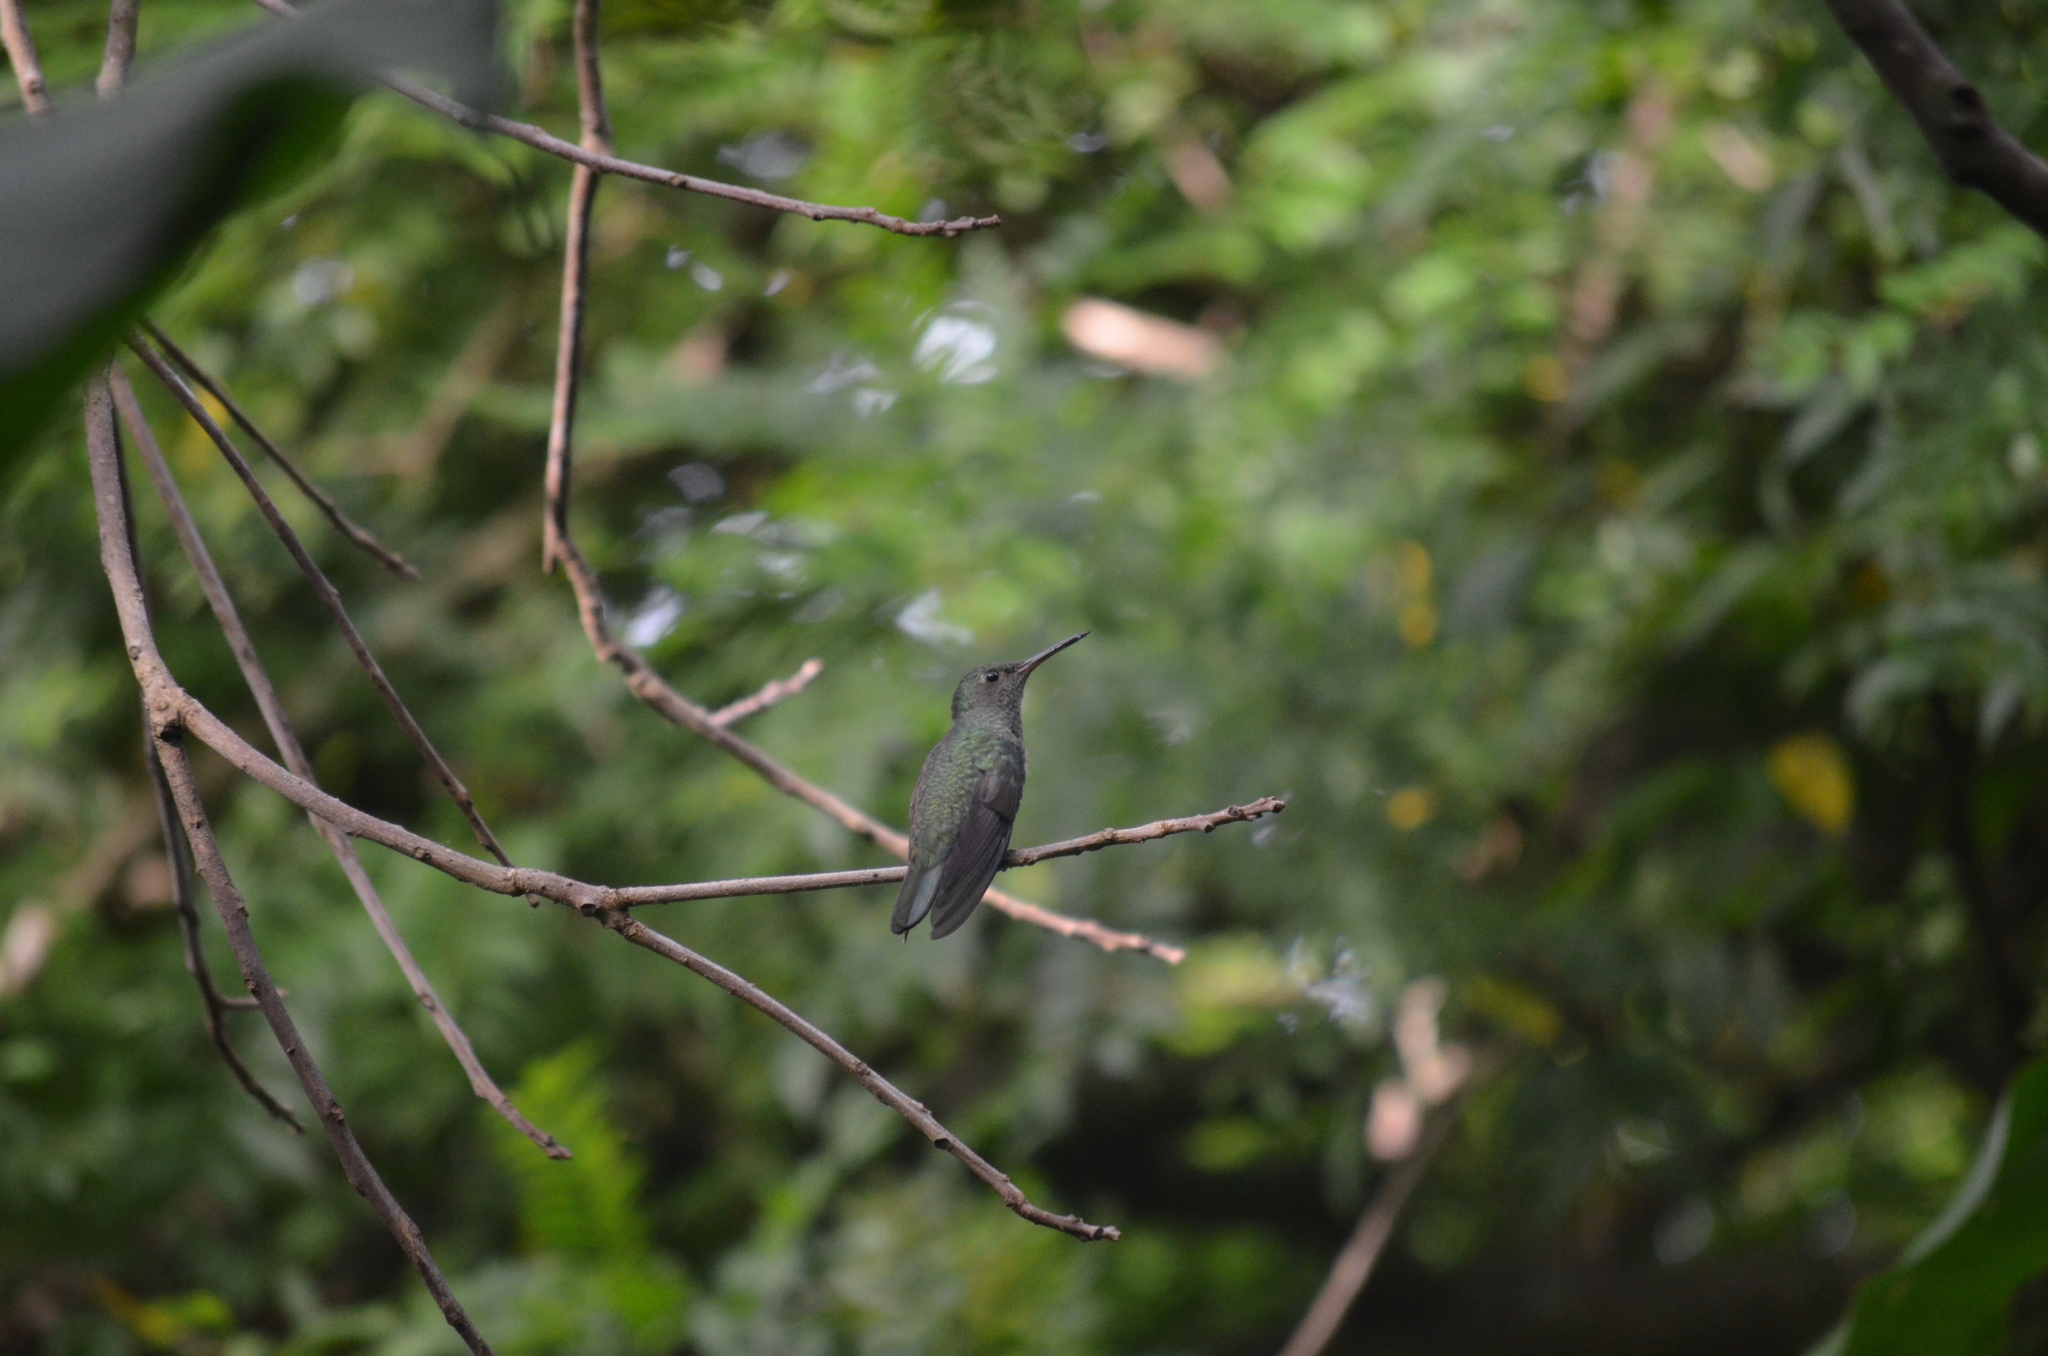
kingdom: Animalia
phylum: Chordata
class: Aves
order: Apodiformes
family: Trochilidae
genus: Phaeochroa
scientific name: Phaeochroa cuvierii
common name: Scaly-breasted hummingbird
